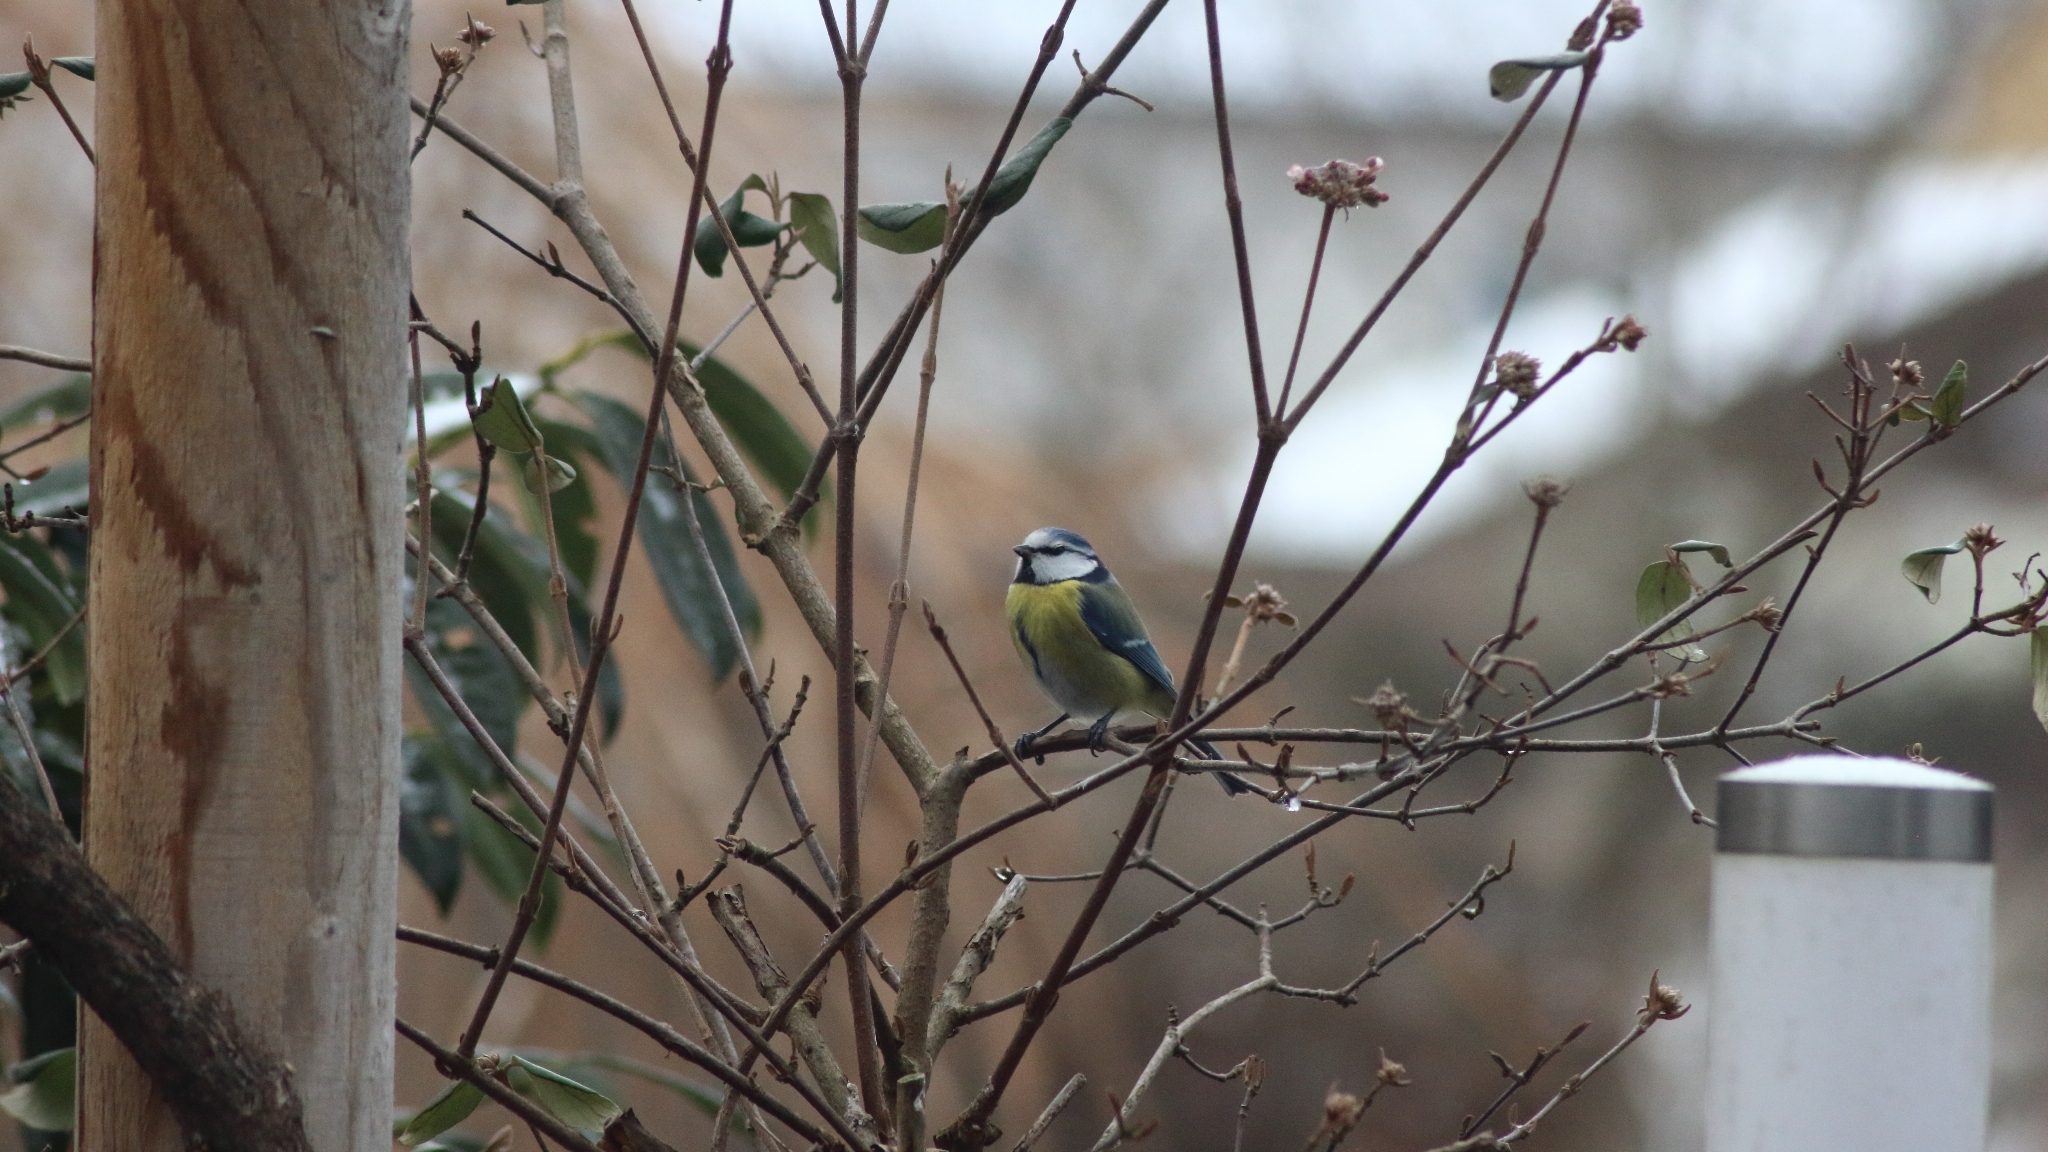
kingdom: Animalia
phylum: Chordata
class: Aves
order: Passeriformes
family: Paridae
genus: Cyanistes
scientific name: Cyanistes caeruleus
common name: Eurasian blue tit
